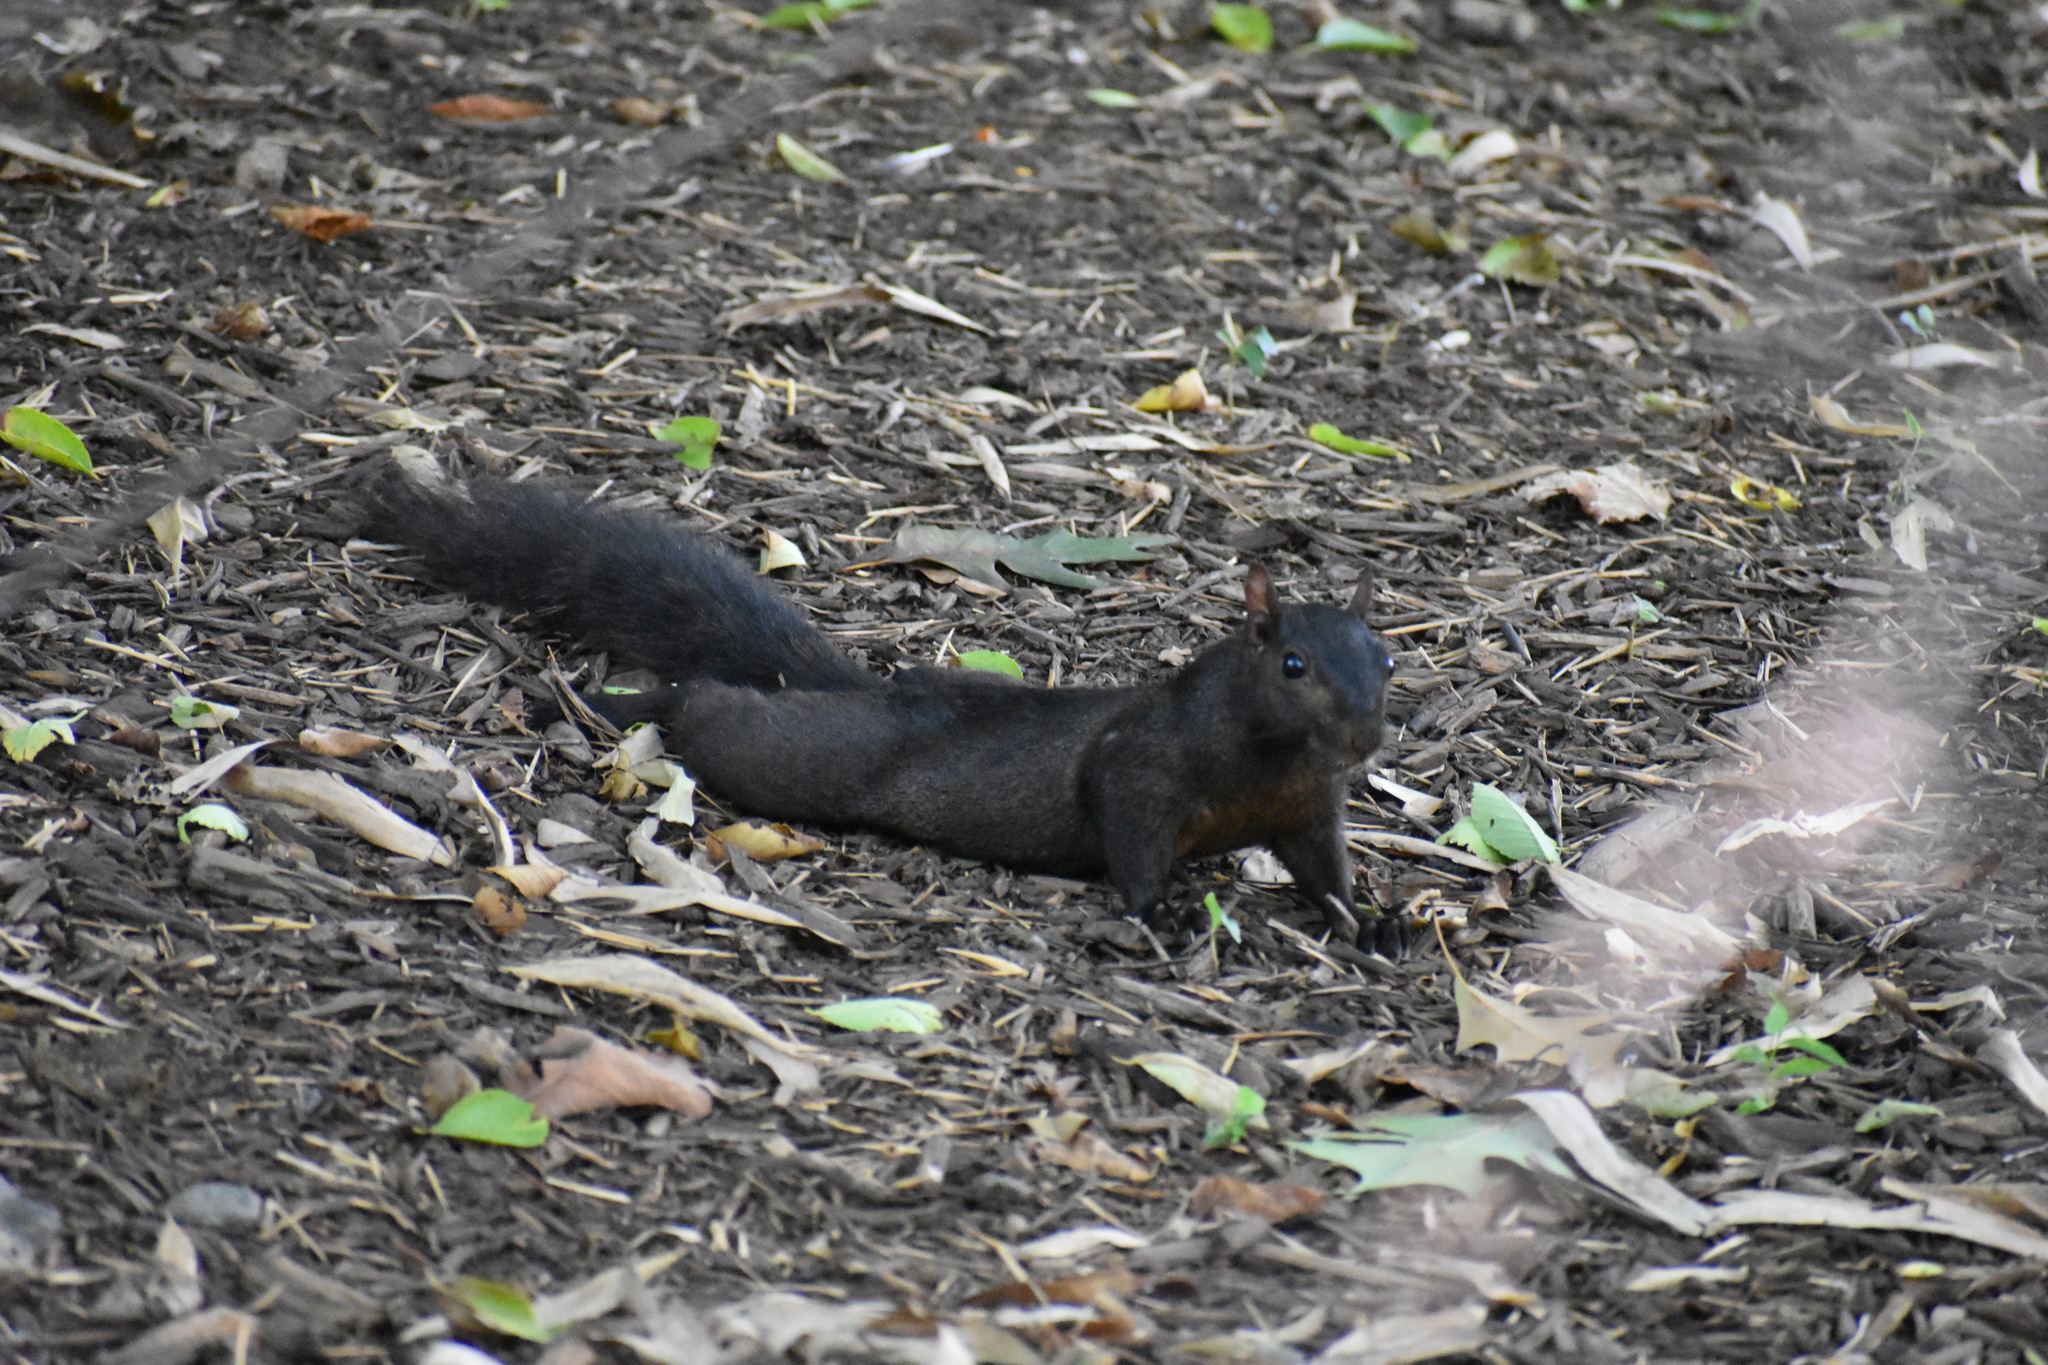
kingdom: Animalia
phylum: Chordata
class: Mammalia
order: Rodentia
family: Sciuridae
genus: Sciurus
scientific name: Sciurus carolinensis
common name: Eastern gray squirrel
